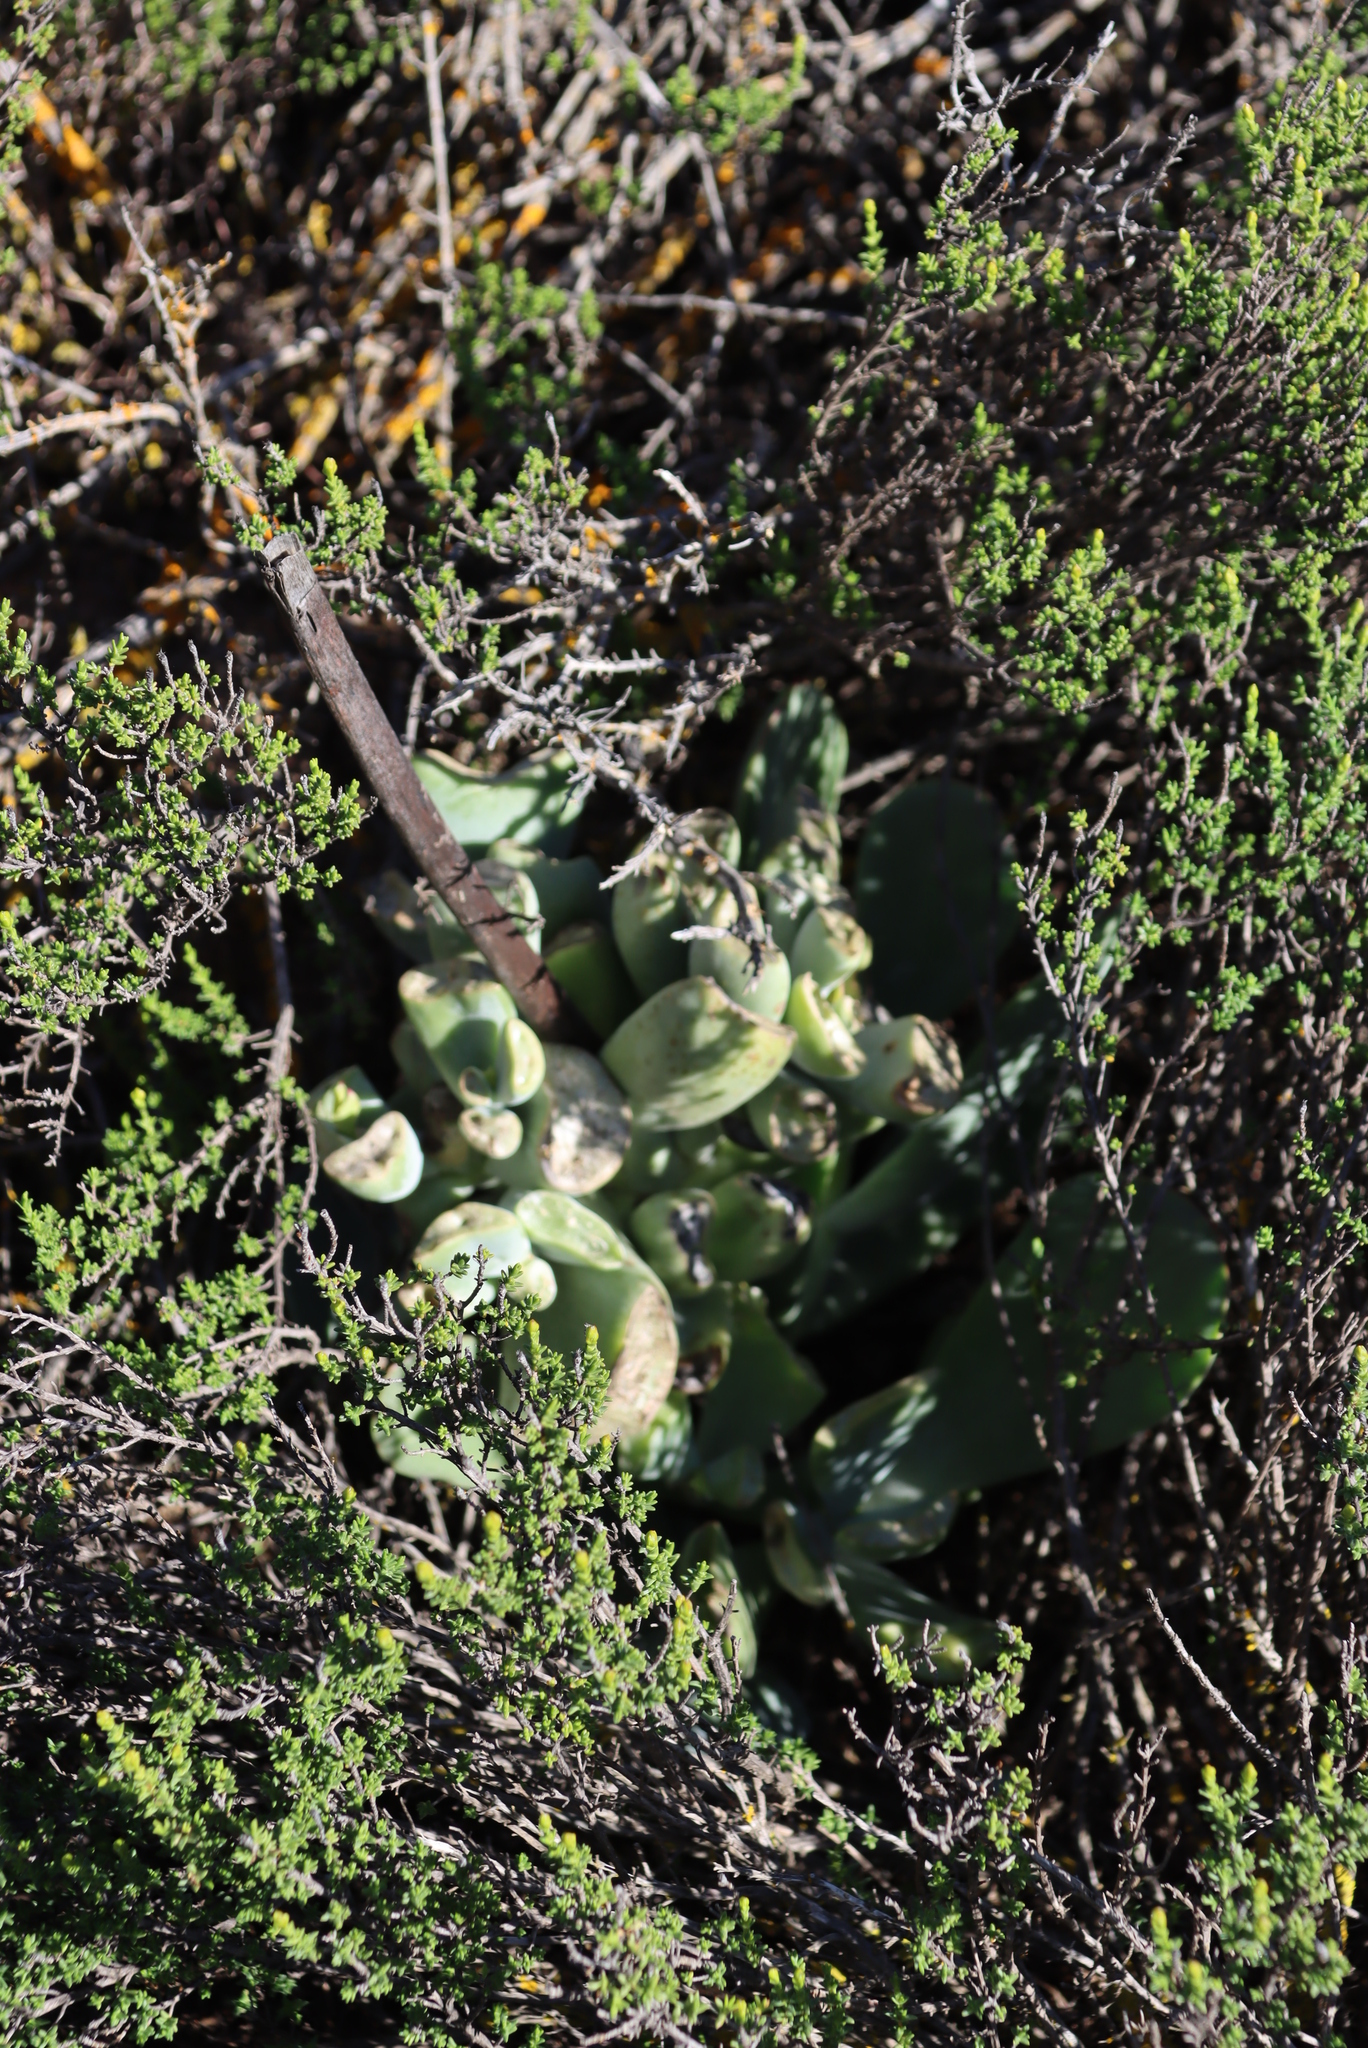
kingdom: Plantae
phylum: Tracheophyta
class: Magnoliopsida
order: Saxifragales
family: Crassulaceae
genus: Cotyledon
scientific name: Cotyledon orbiculata
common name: Pig's ear
